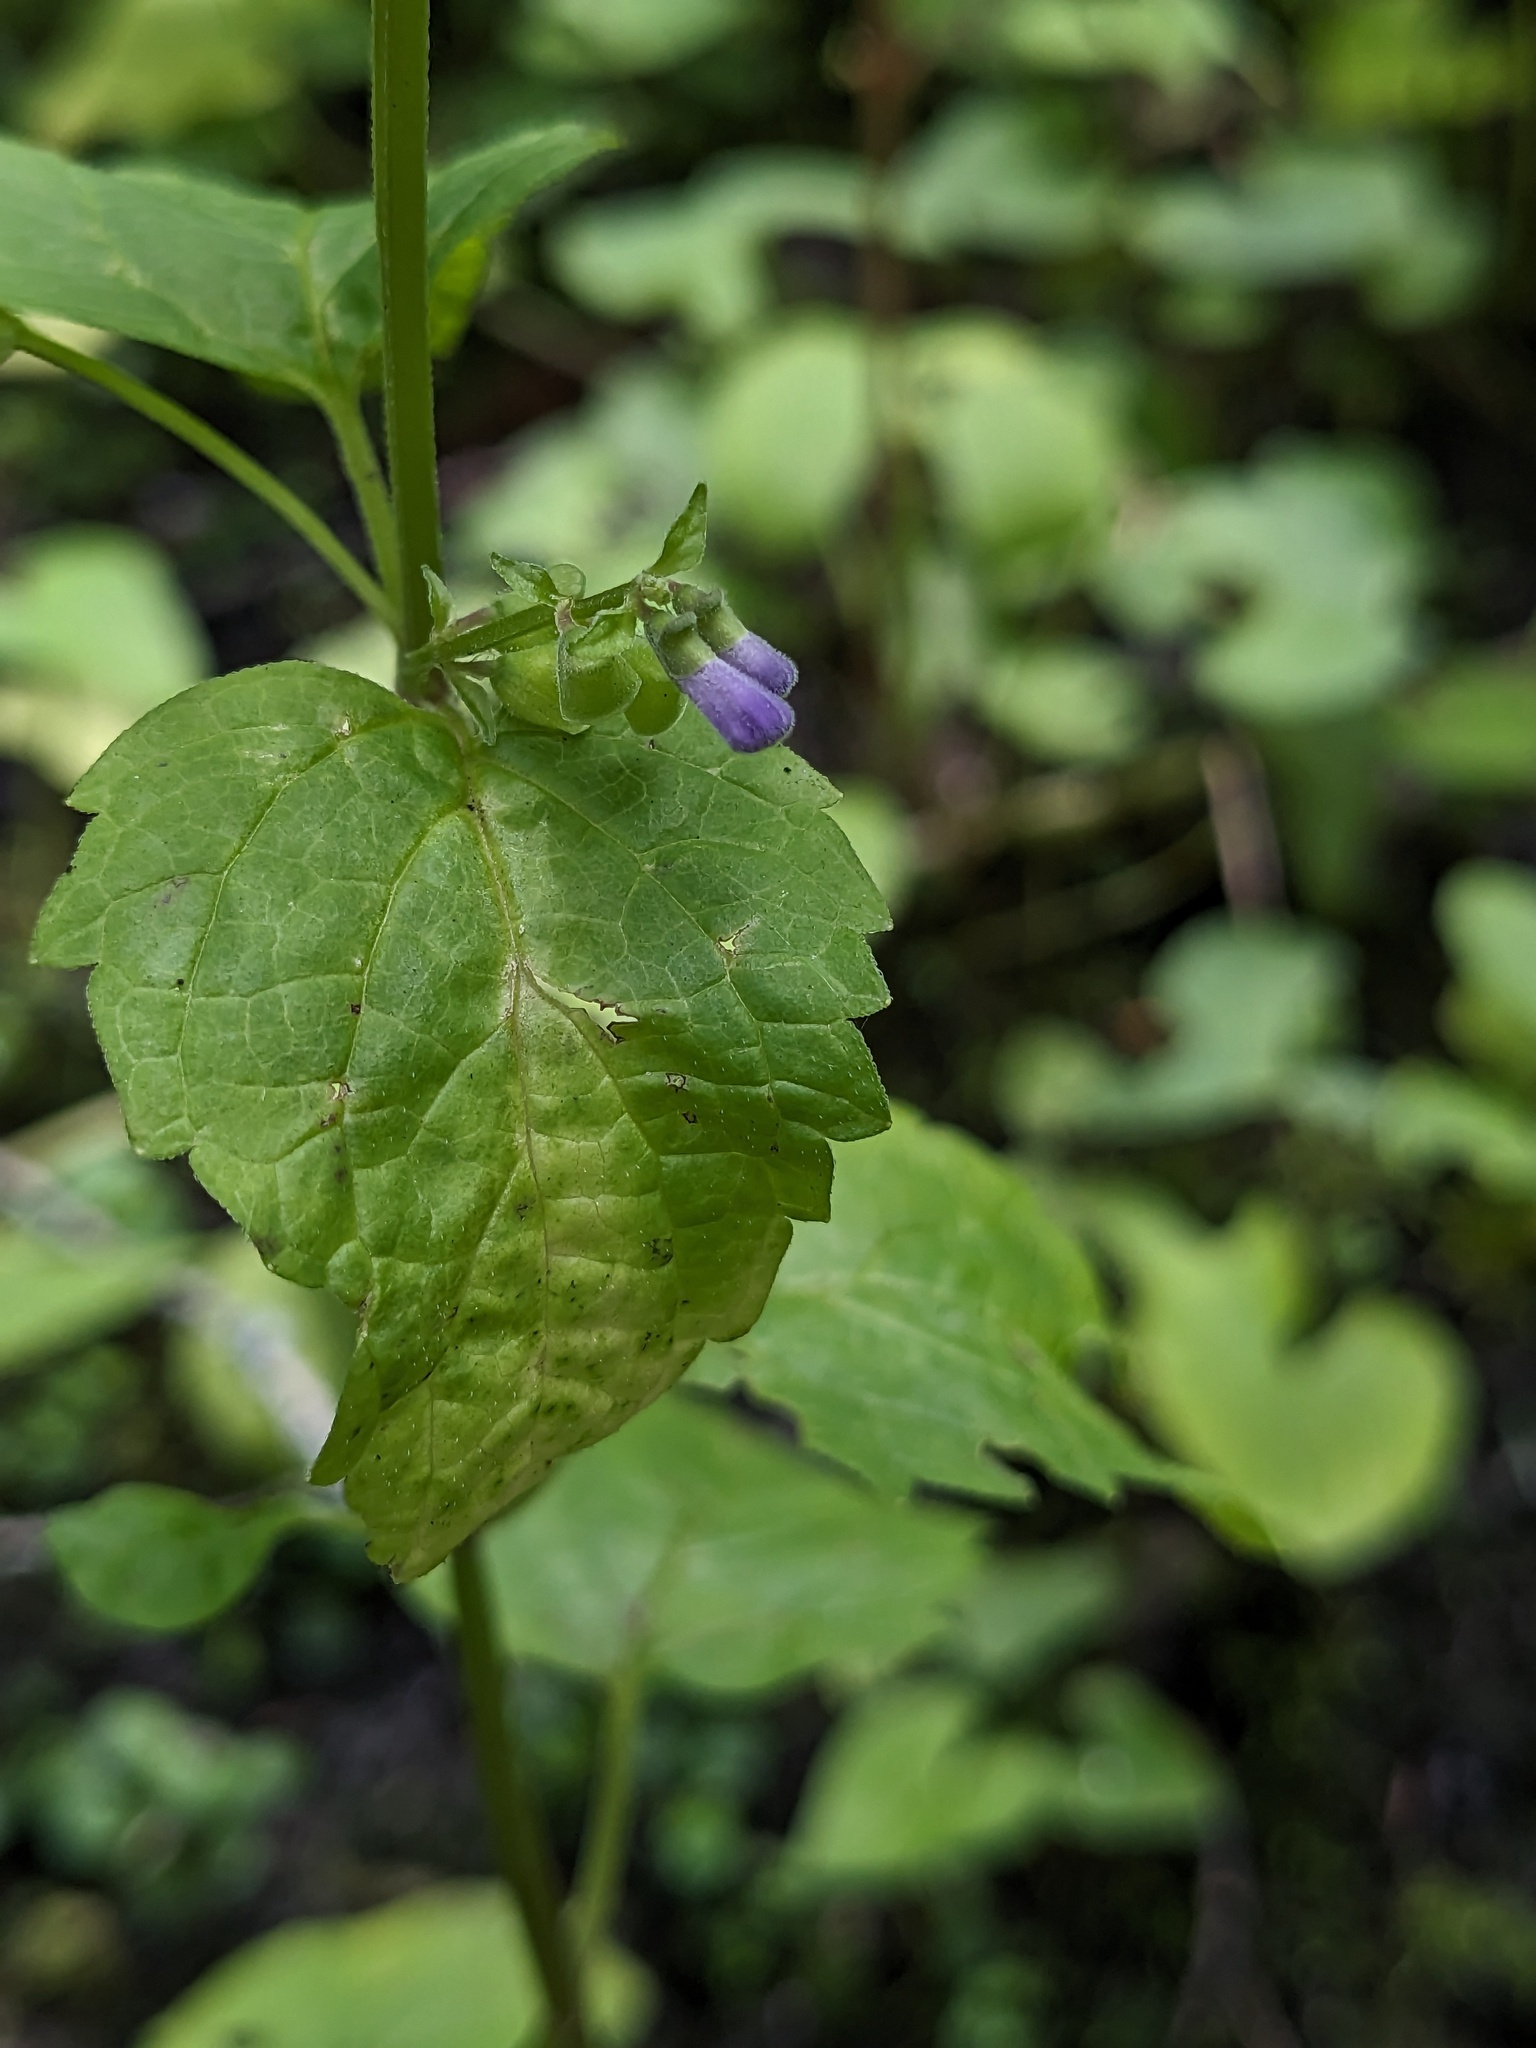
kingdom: Plantae
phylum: Tracheophyta
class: Magnoliopsida
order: Lamiales
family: Lamiaceae
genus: Scutellaria
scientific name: Scutellaria lateriflora
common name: Blue skullcap
